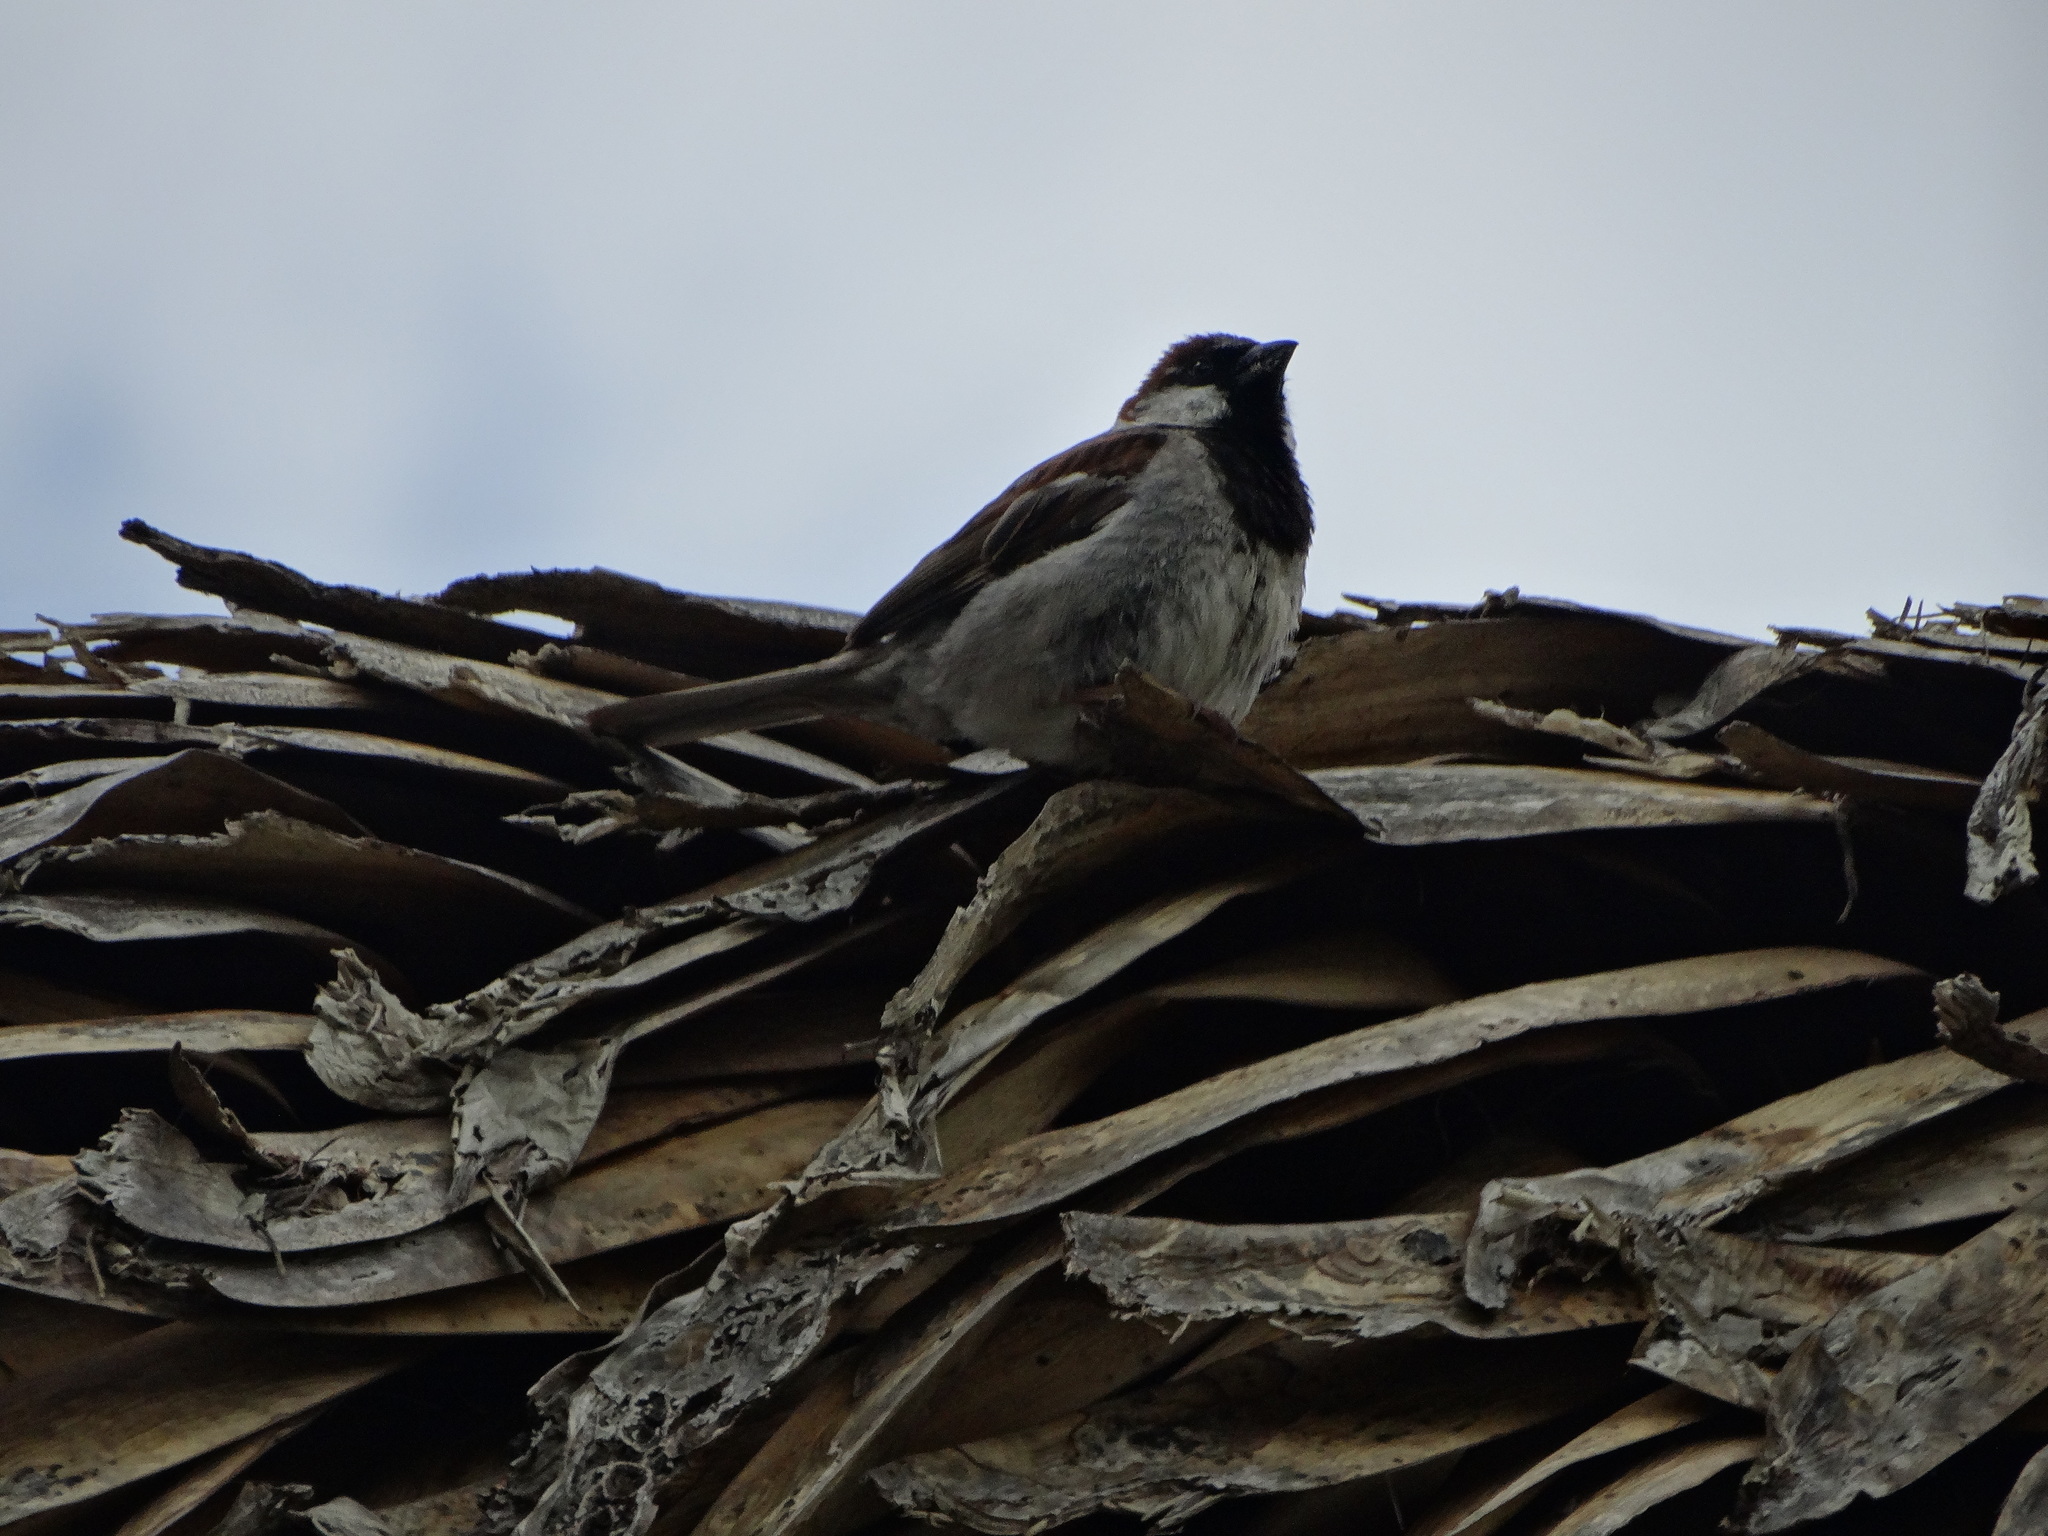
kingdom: Animalia
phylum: Chordata
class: Aves
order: Passeriformes
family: Passeridae
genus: Passer
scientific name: Passer domesticus
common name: House sparrow
